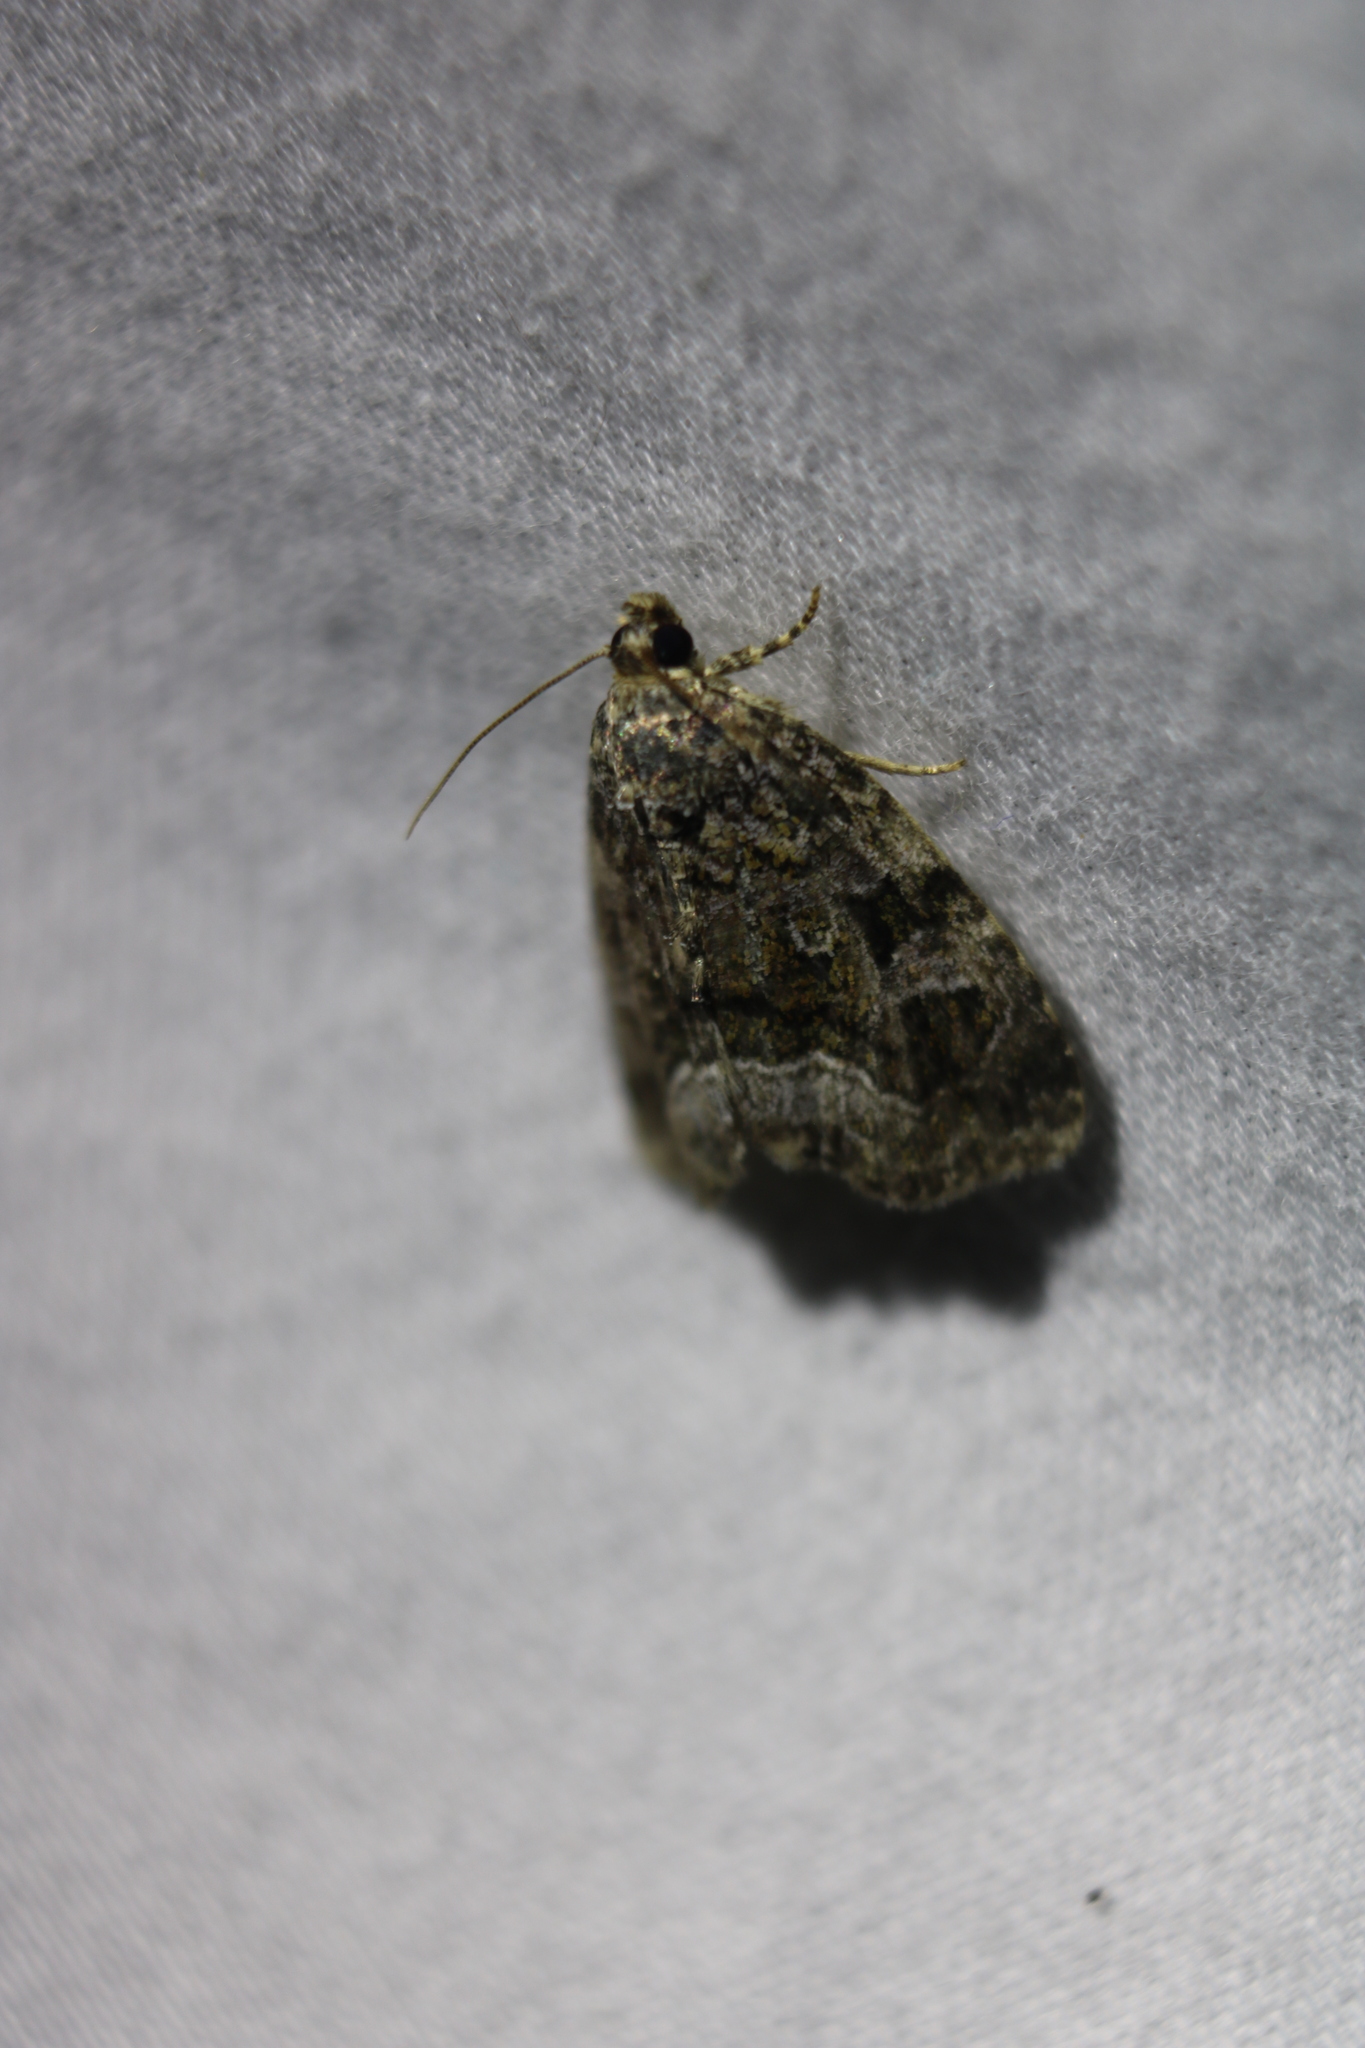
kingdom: Animalia
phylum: Arthropoda
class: Insecta
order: Lepidoptera
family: Noctuidae
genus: Protodeltote
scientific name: Protodeltote muscosula
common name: Large mossy glyph
